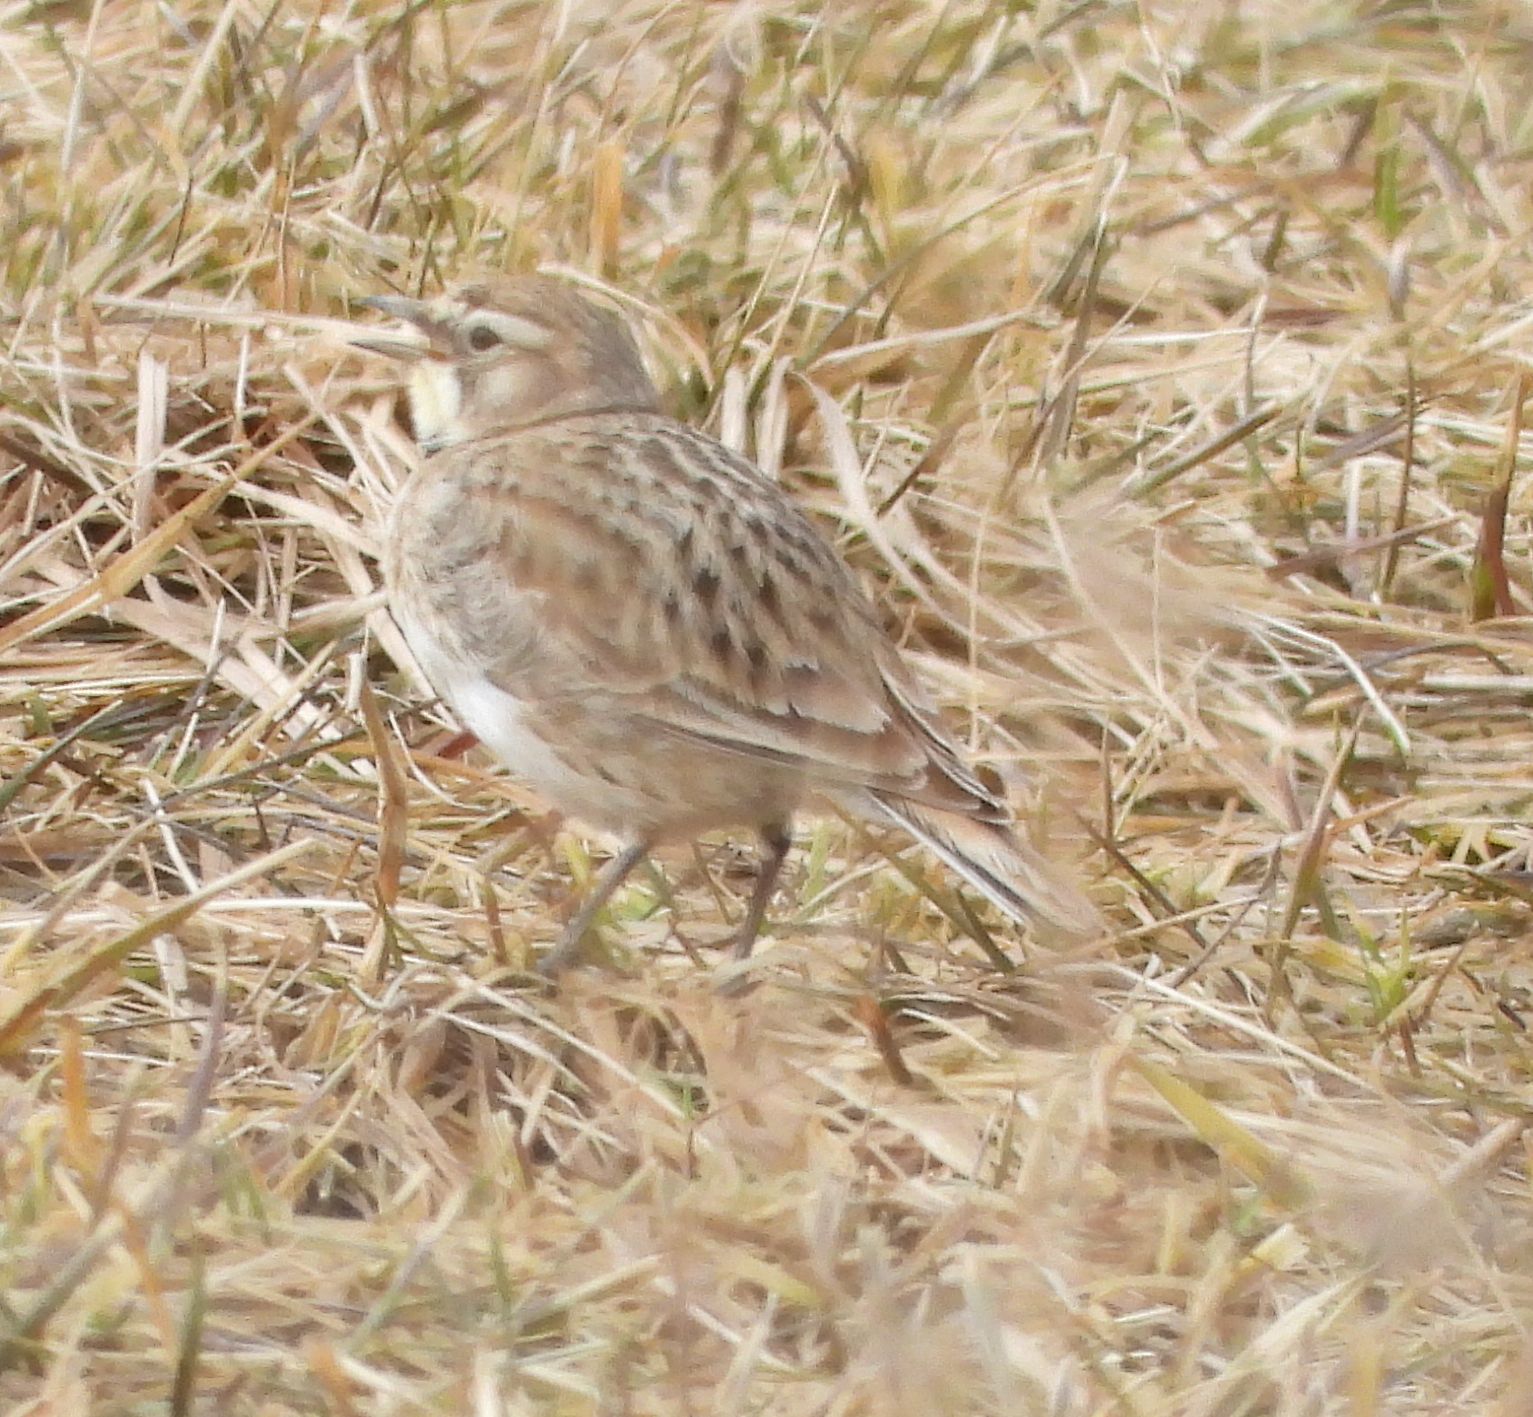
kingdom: Animalia
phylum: Chordata
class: Aves
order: Passeriformes
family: Alaudidae
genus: Eremophila
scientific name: Eremophila alpestris
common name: Horned lark
